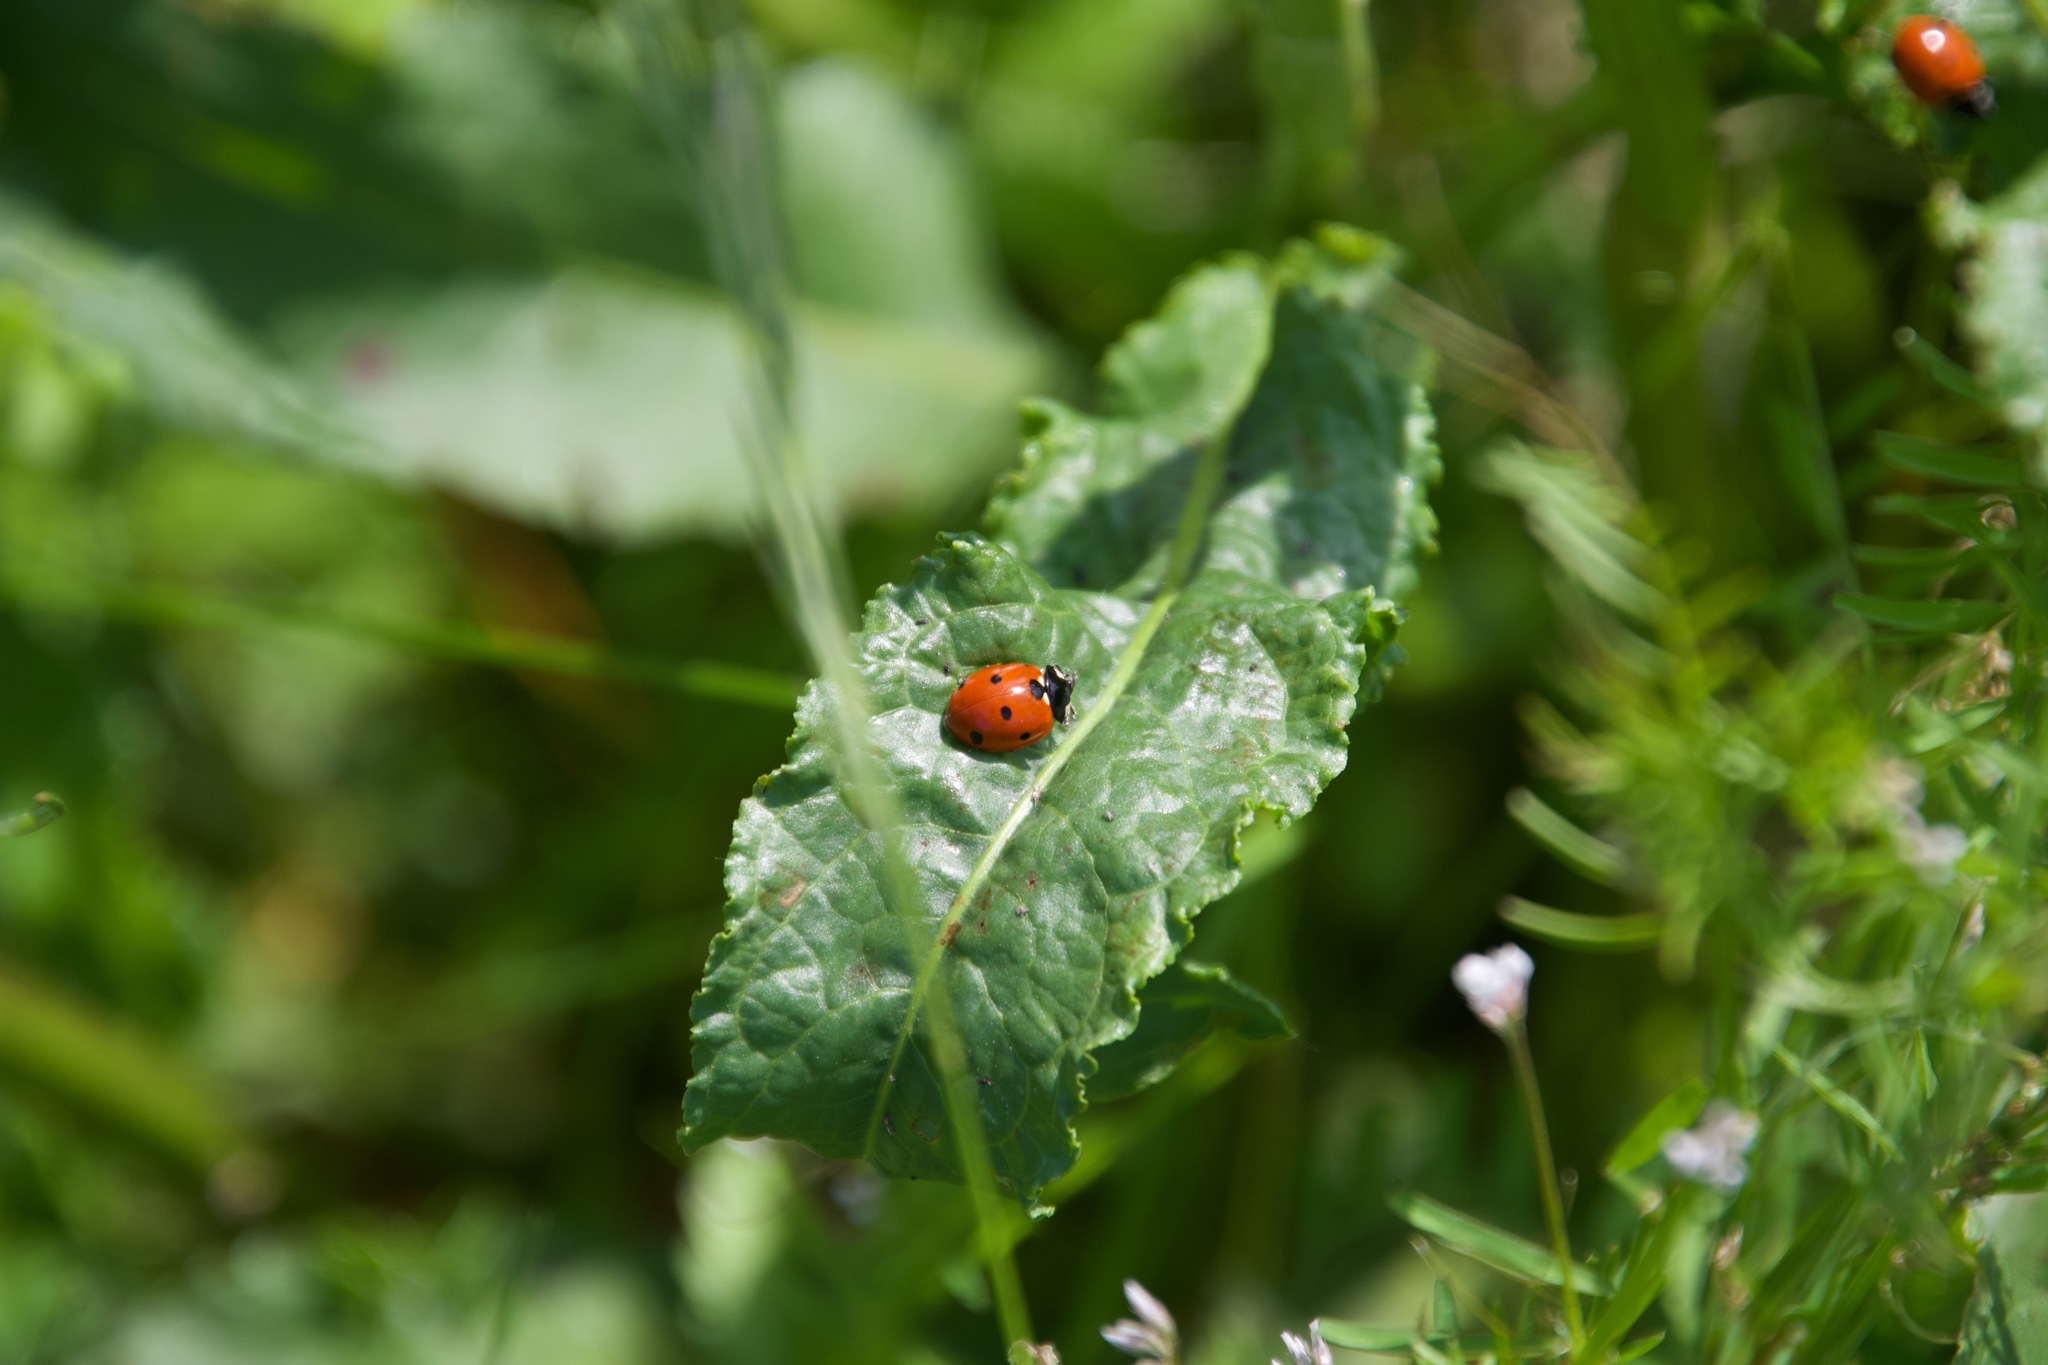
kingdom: Animalia
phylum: Arthropoda
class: Insecta
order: Coleoptera
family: Coccinellidae
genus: Coccinella
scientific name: Coccinella septempunctata
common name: Sevenspotted lady beetle
